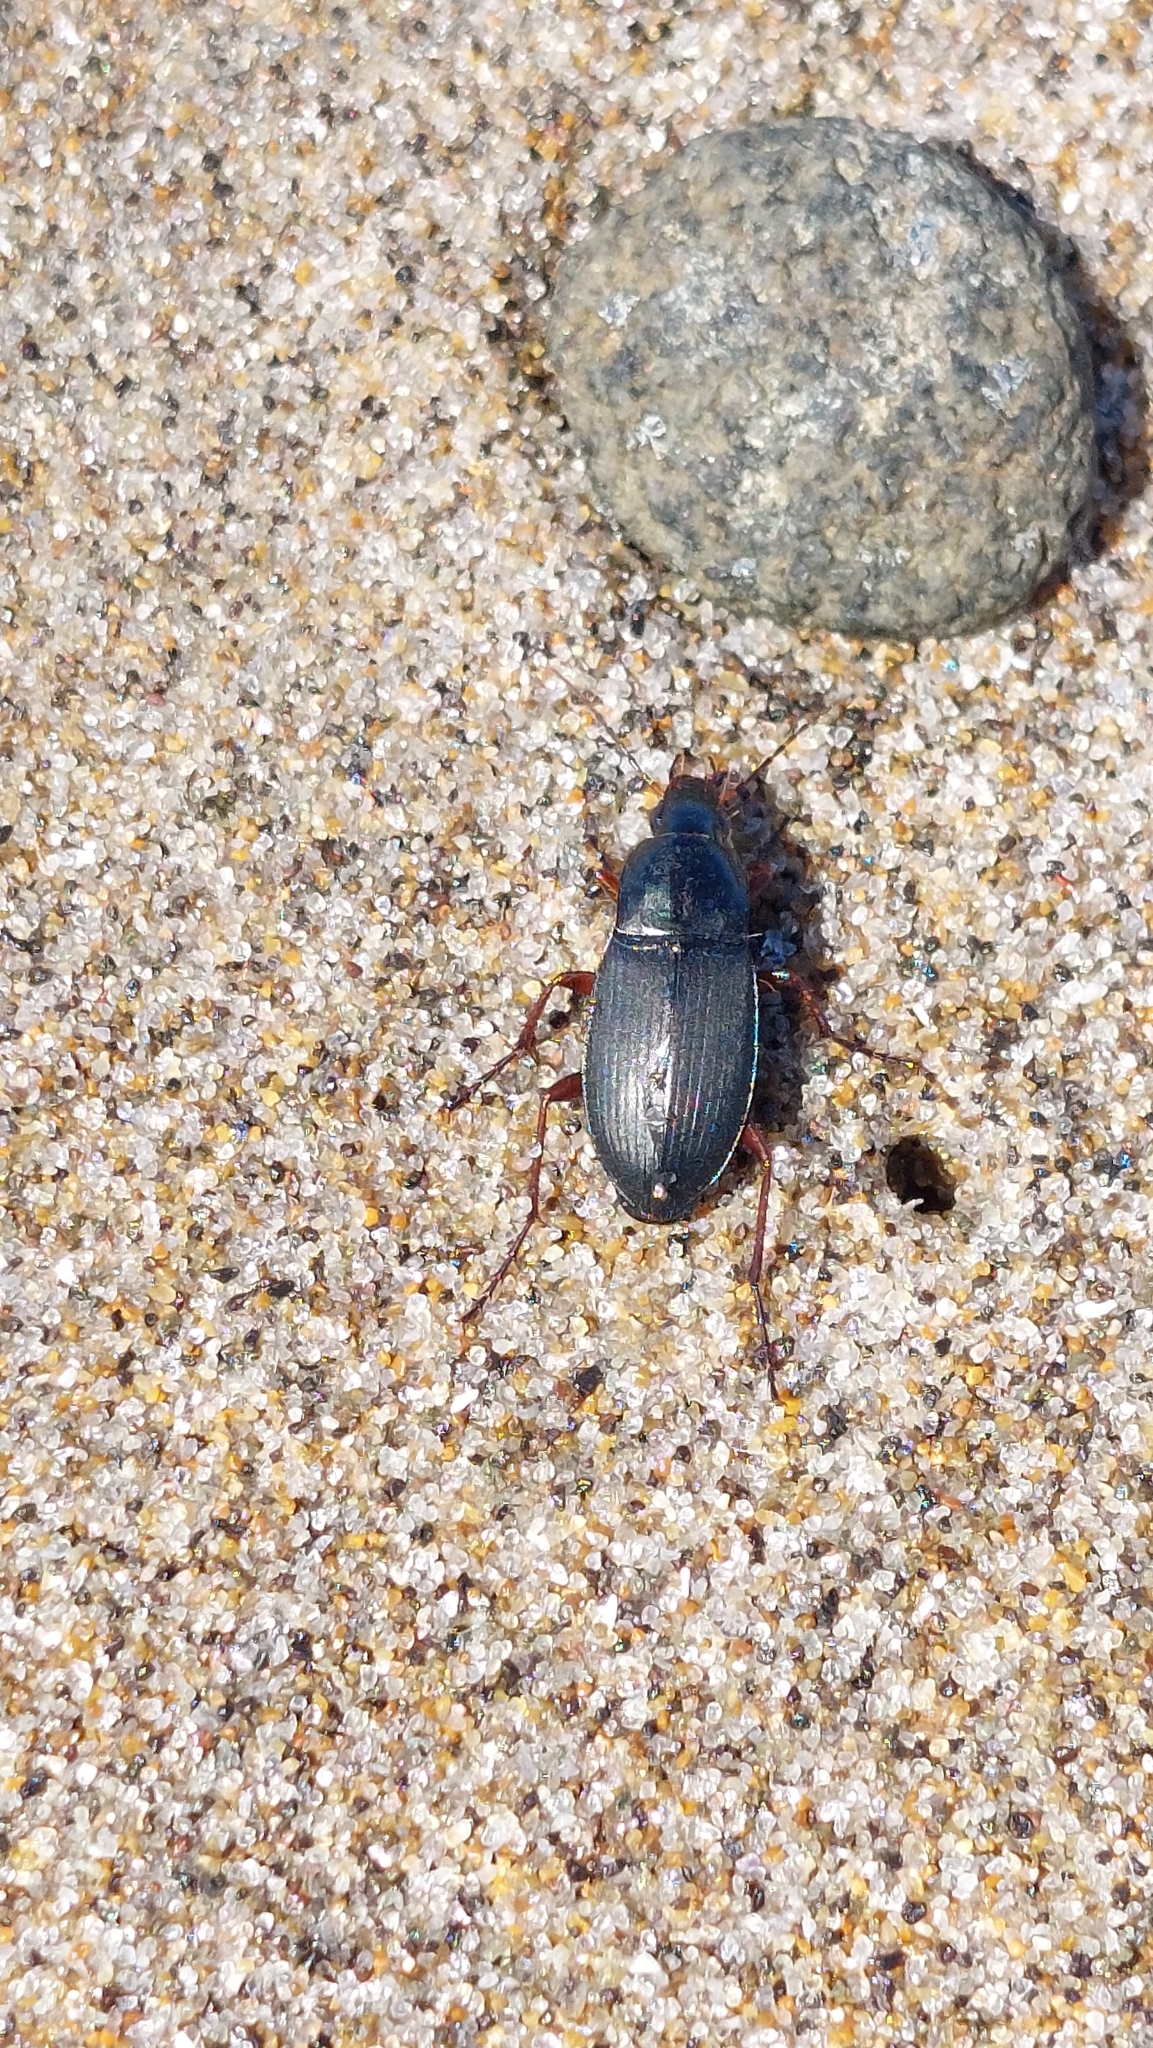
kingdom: Animalia
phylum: Arthropoda
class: Insecta
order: Coleoptera
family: Carabidae
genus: Calathus
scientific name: Calathus fuscipes
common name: Dark-footed harp ground beetle
